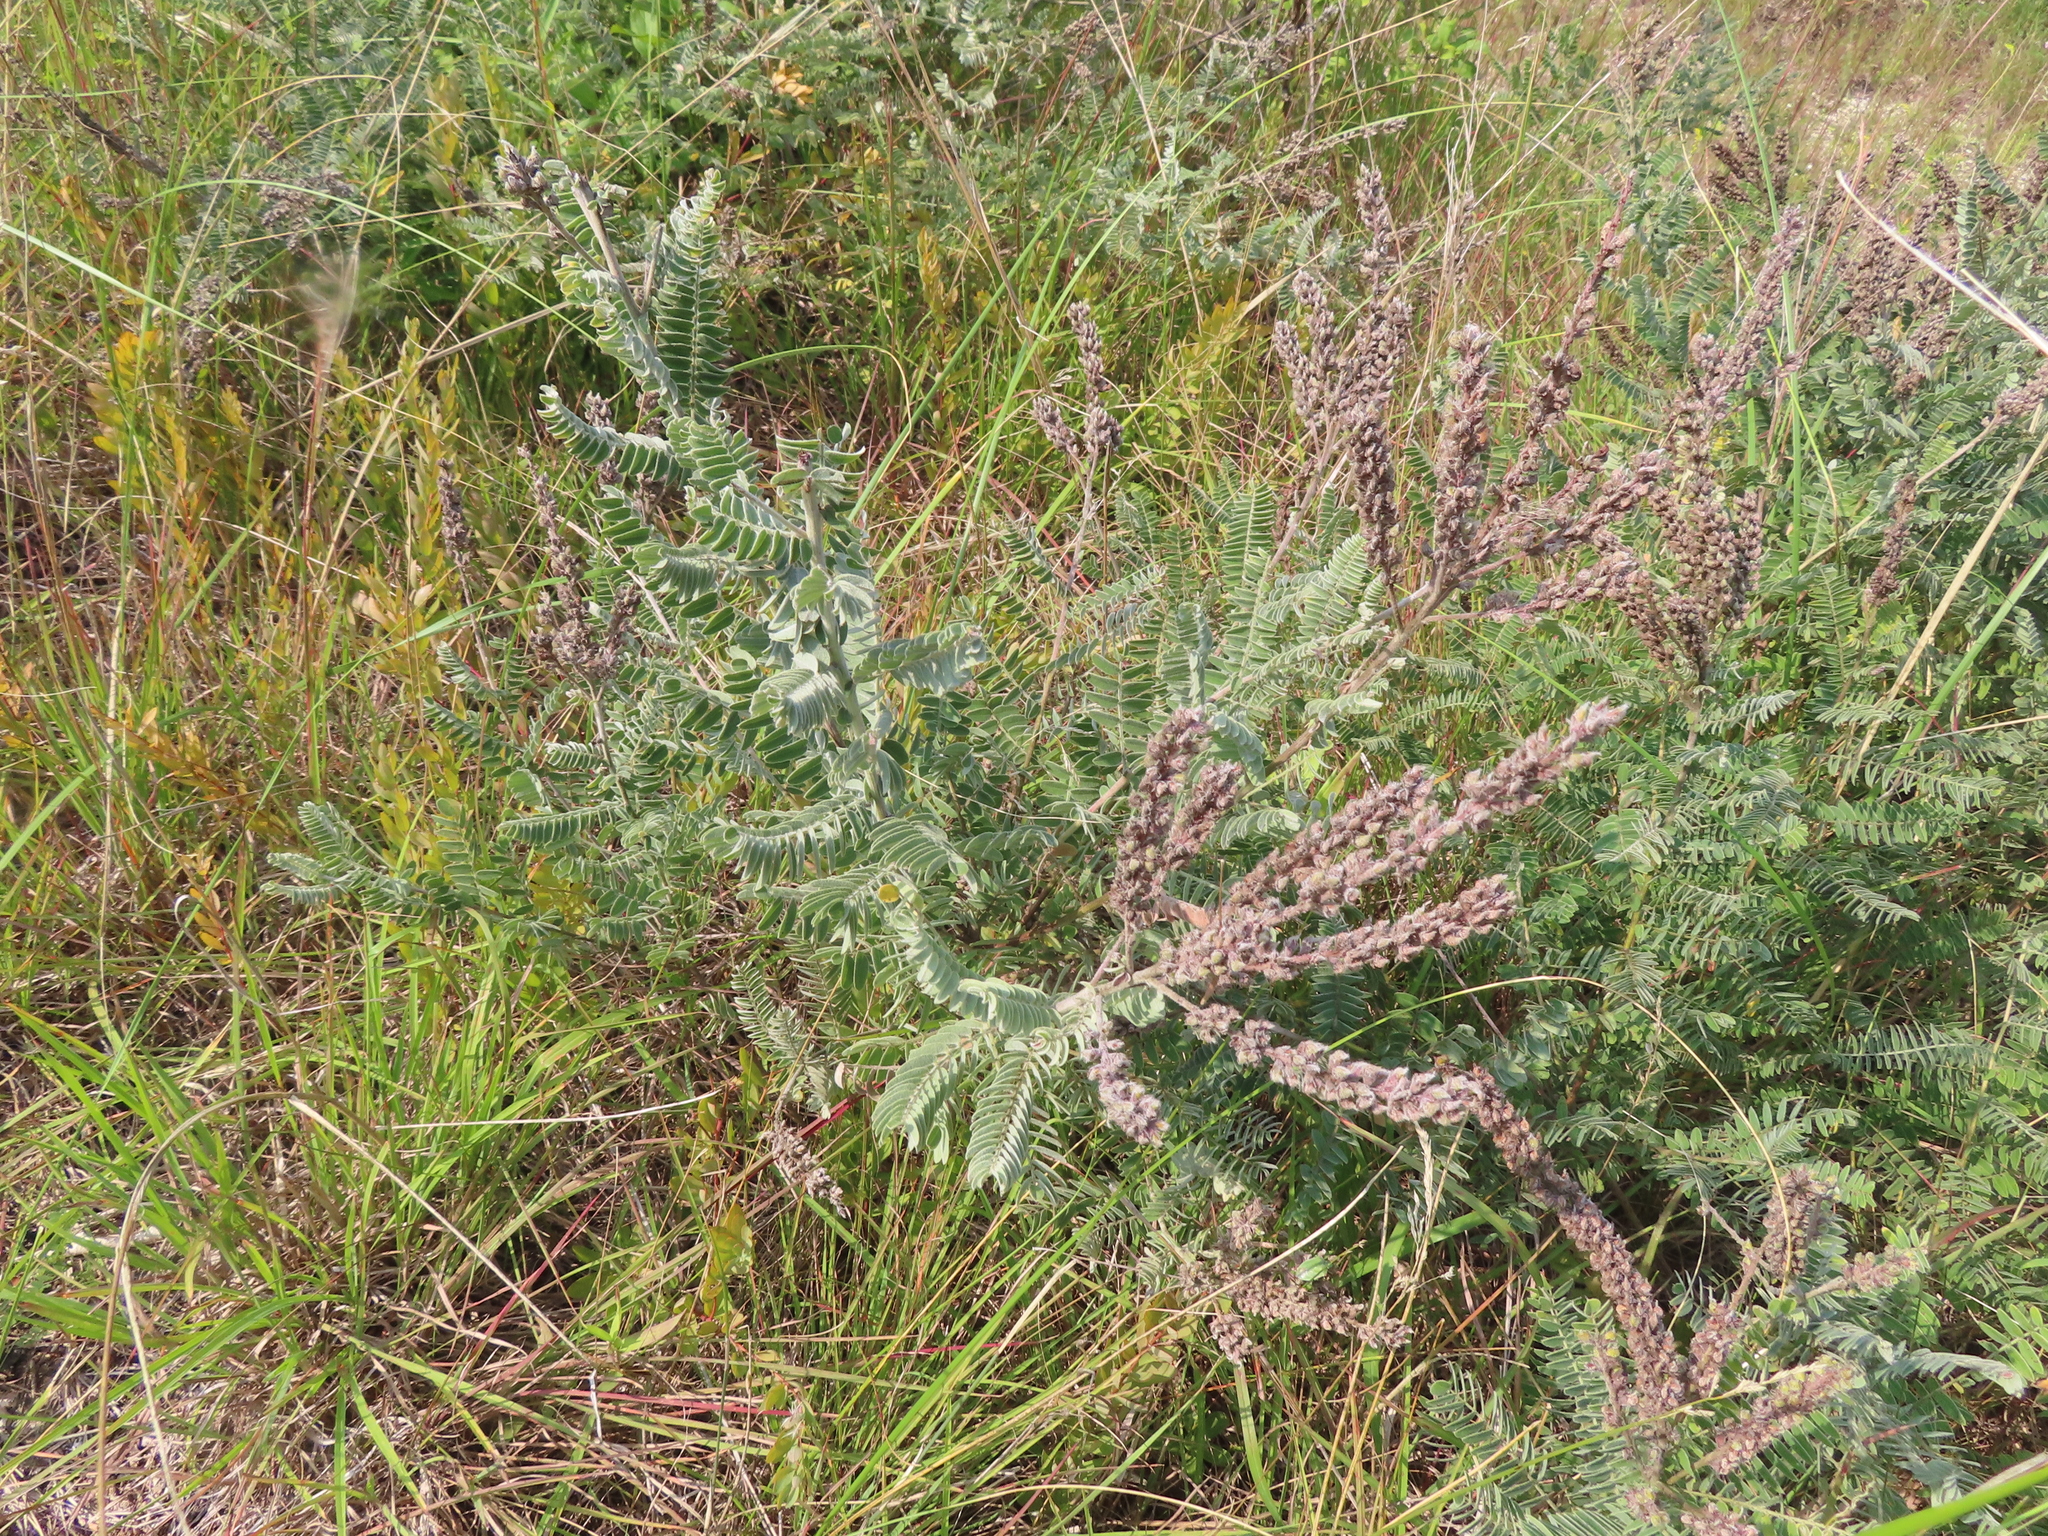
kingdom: Plantae
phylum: Tracheophyta
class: Magnoliopsida
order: Fabales
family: Fabaceae
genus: Amorpha
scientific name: Amorpha canescens
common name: Leadplant
